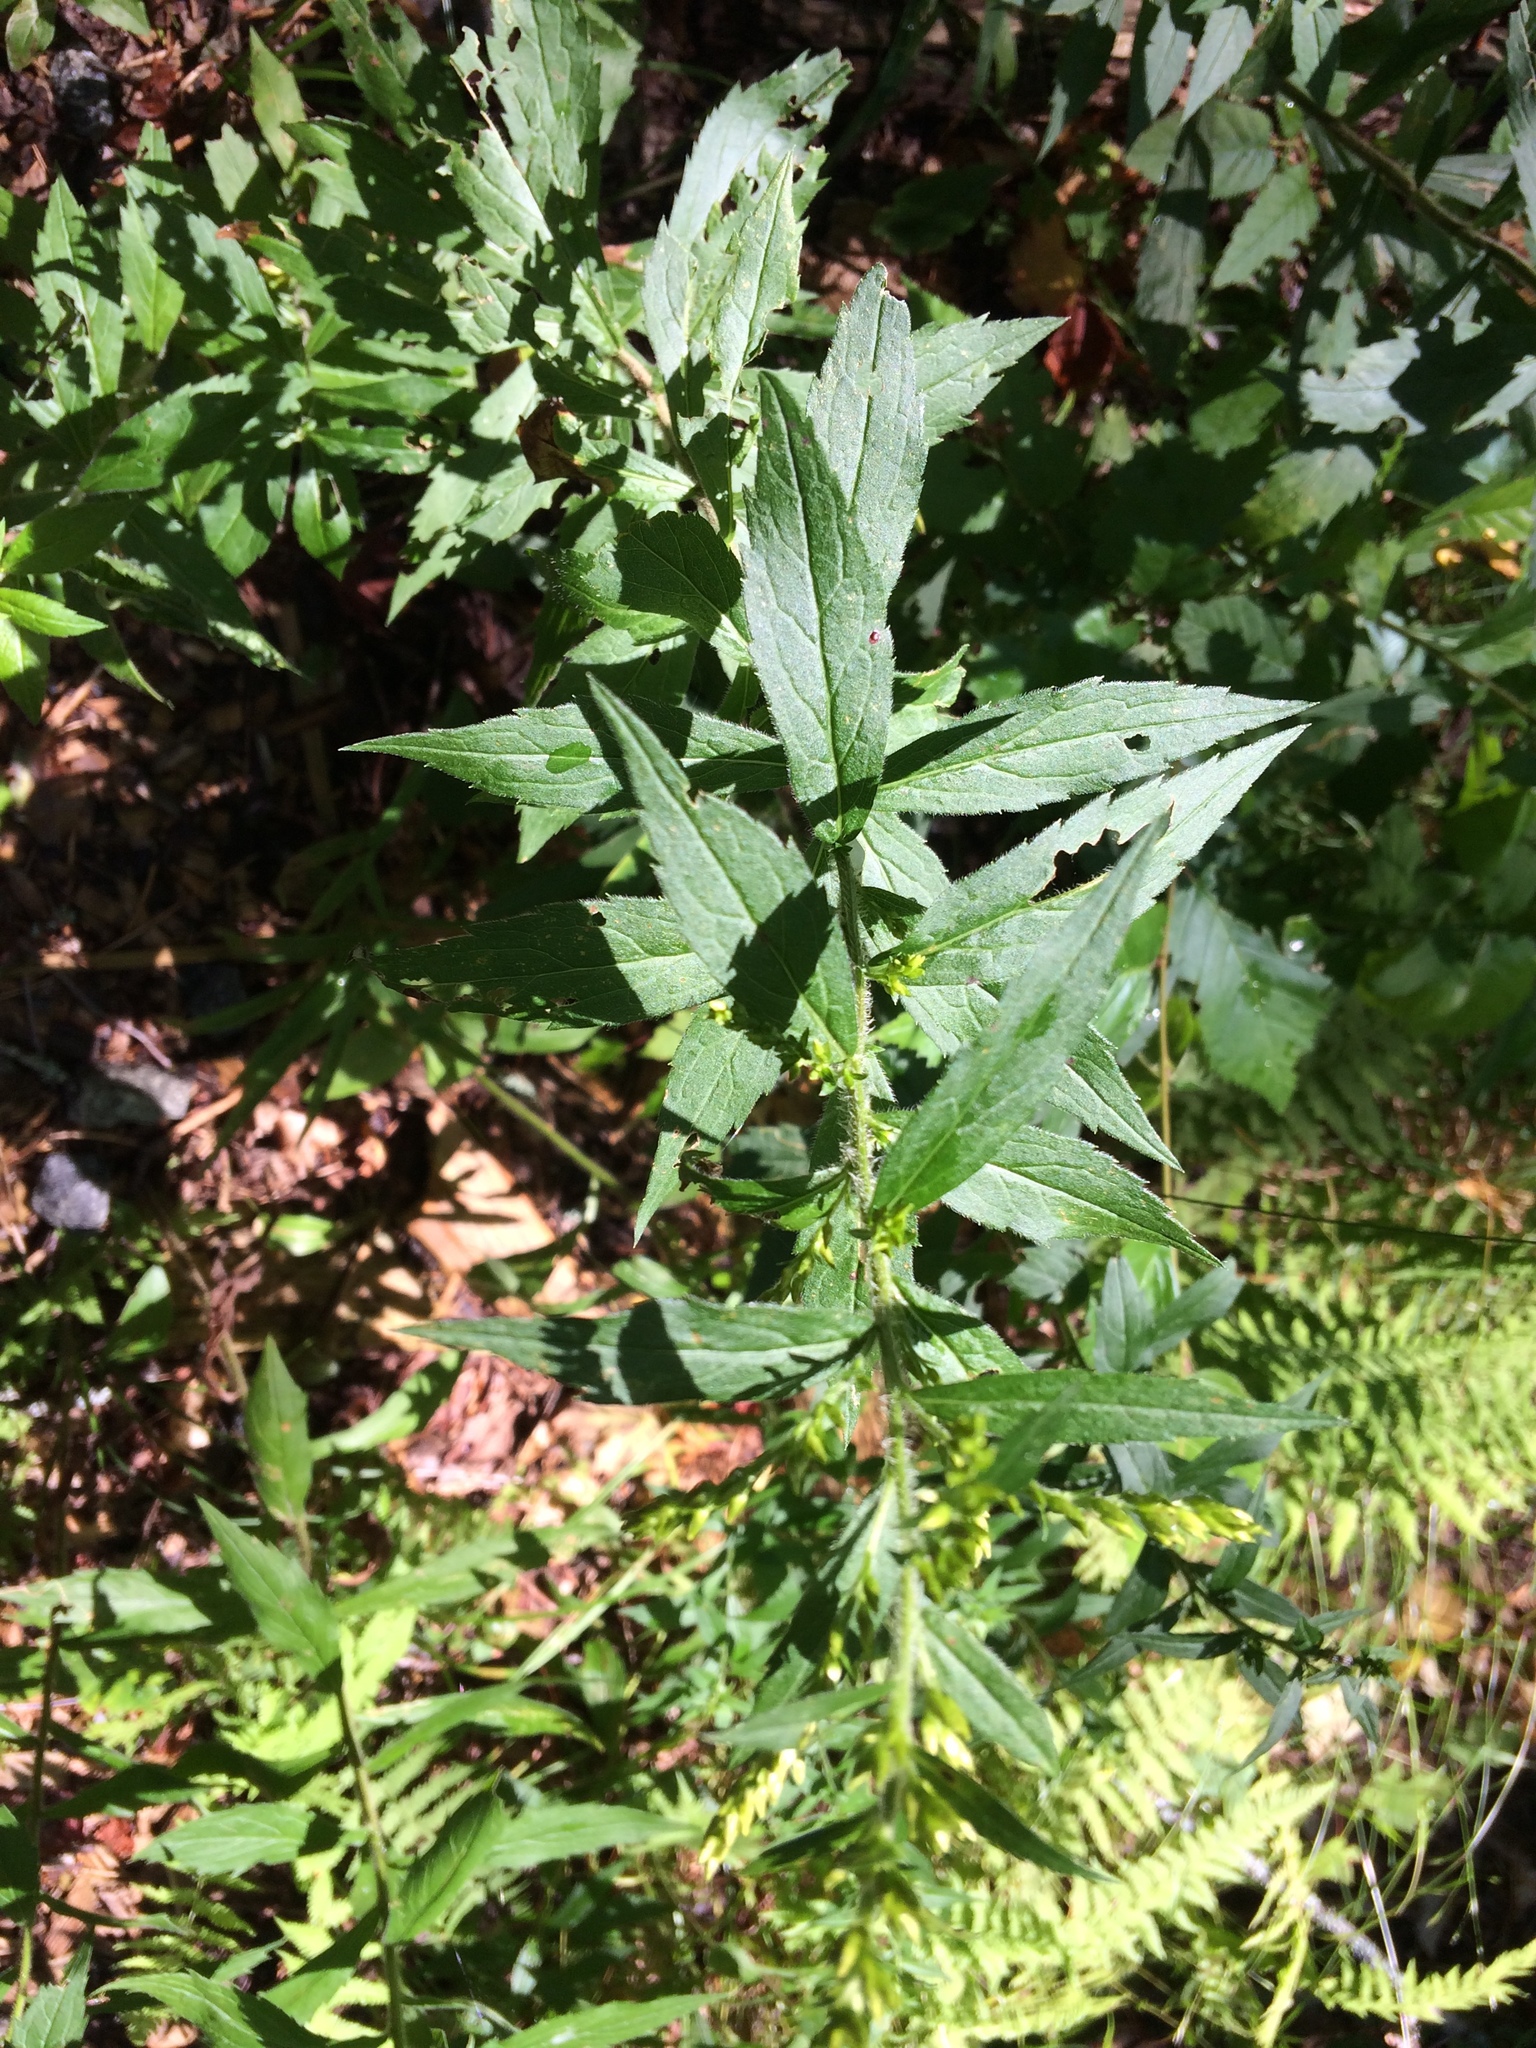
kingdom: Plantae
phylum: Tracheophyta
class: Magnoliopsida
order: Asterales
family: Asteraceae
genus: Solidago
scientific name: Solidago rugosa
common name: Rough-stemmed goldenrod
